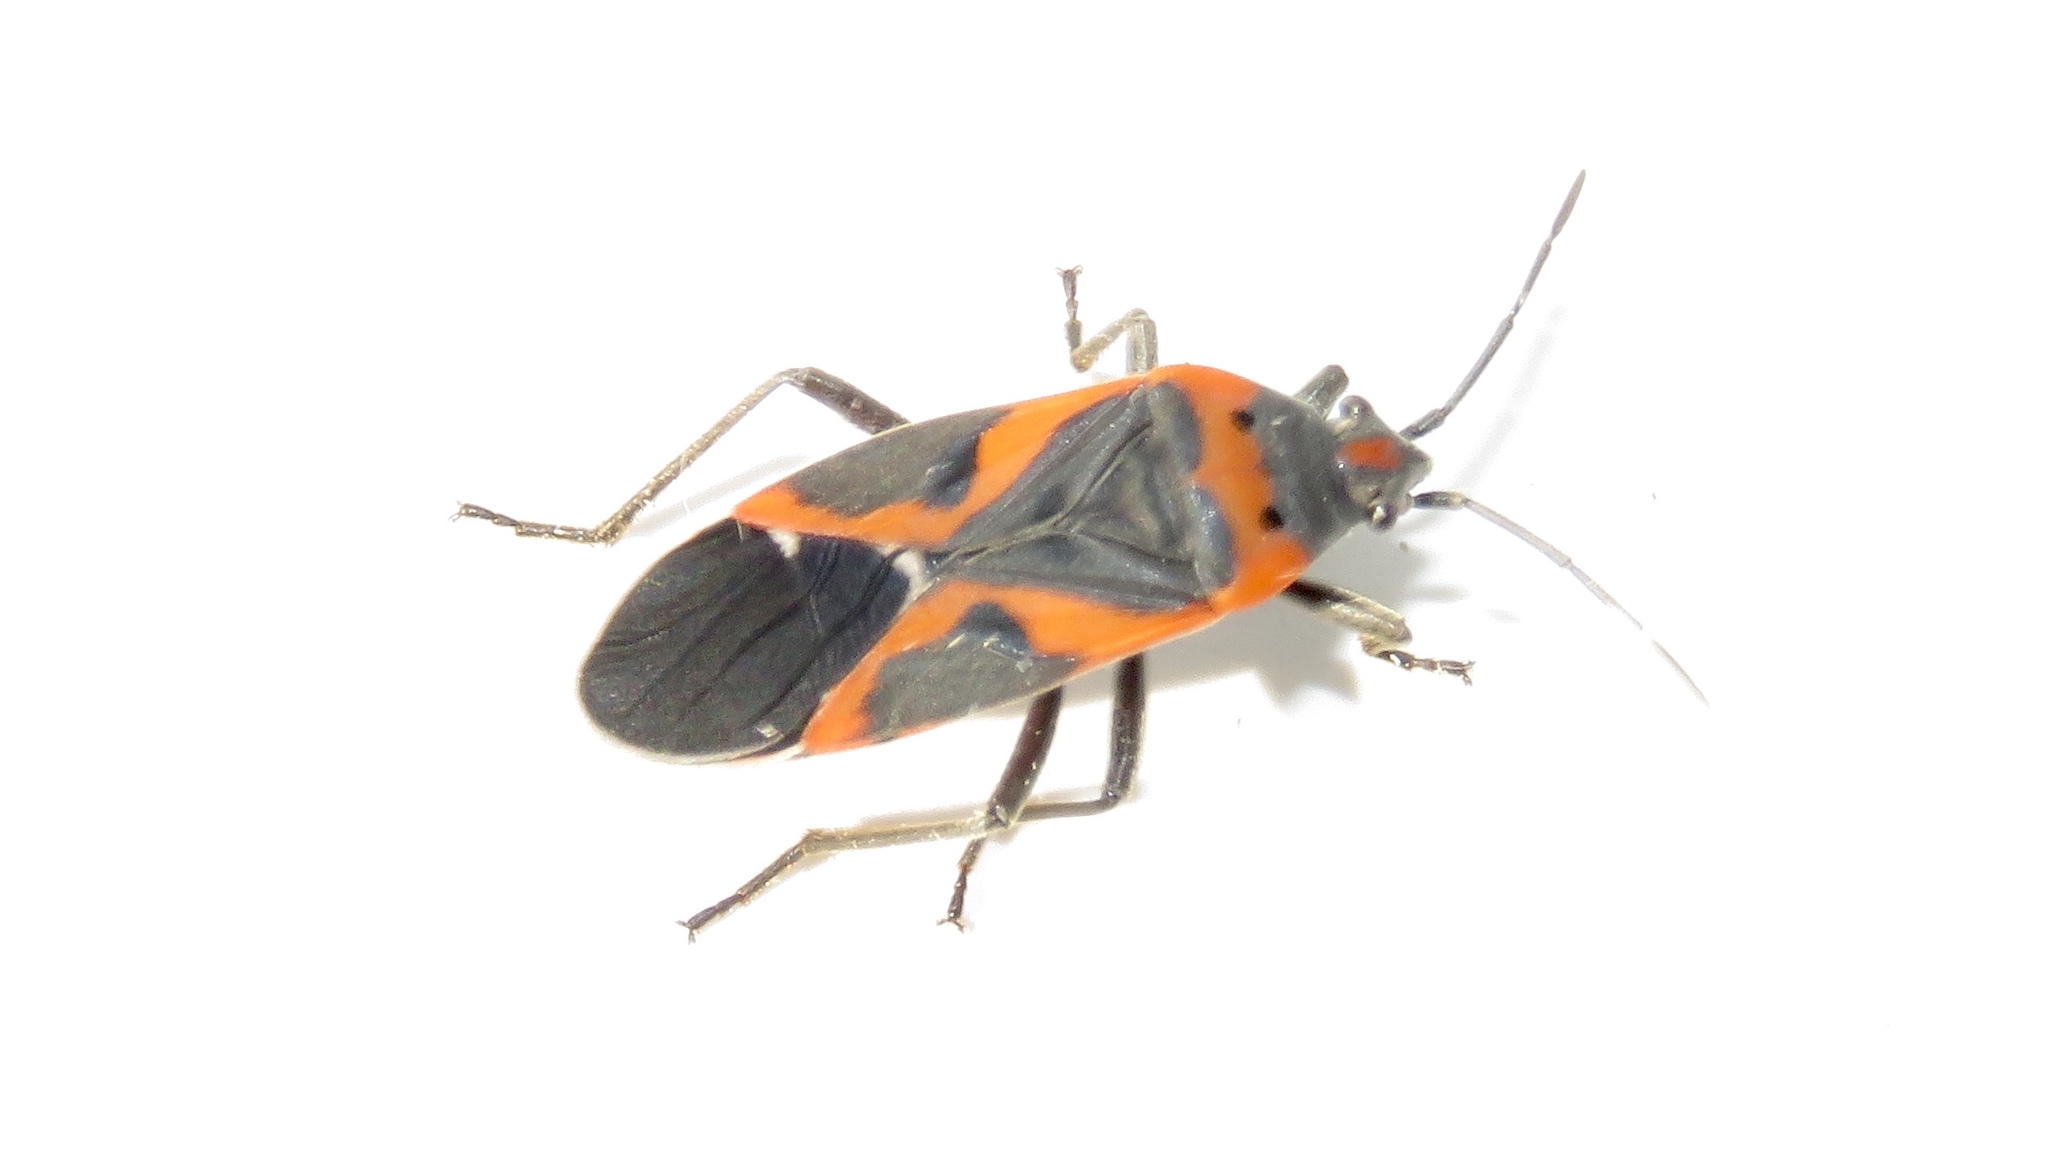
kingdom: Animalia
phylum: Arthropoda
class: Insecta
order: Hemiptera
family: Lygaeidae
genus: Lygaeus
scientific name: Lygaeus kalmii
